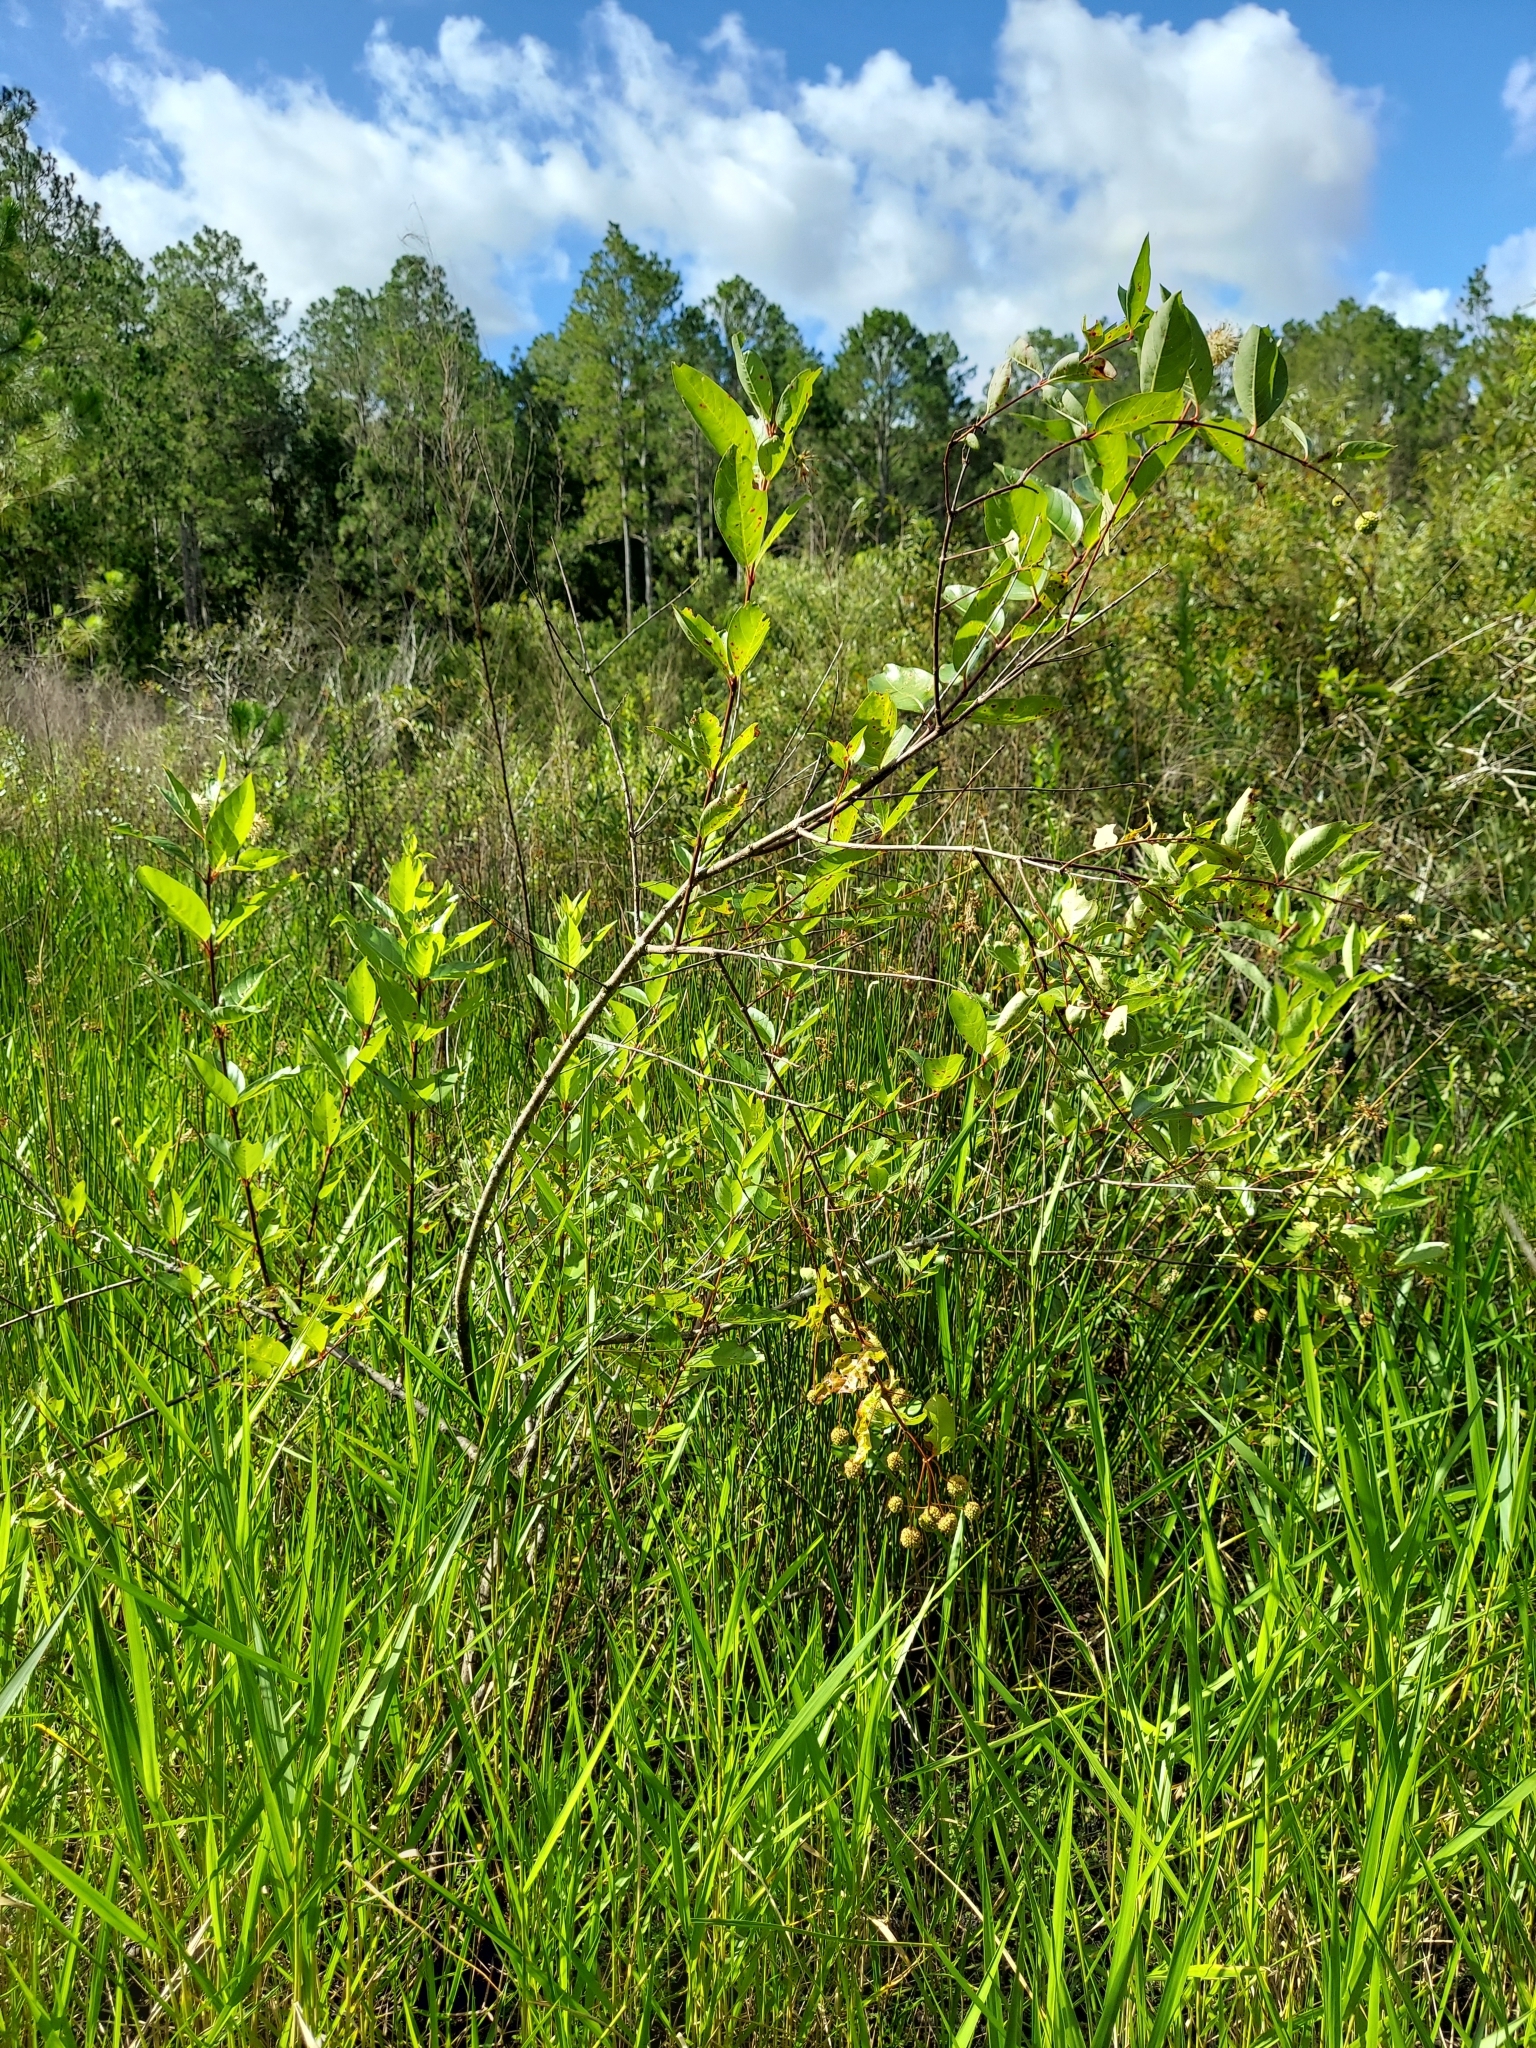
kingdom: Plantae
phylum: Tracheophyta
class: Magnoliopsida
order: Gentianales
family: Rubiaceae
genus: Cephalanthus
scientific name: Cephalanthus occidentalis
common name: Button-willow
